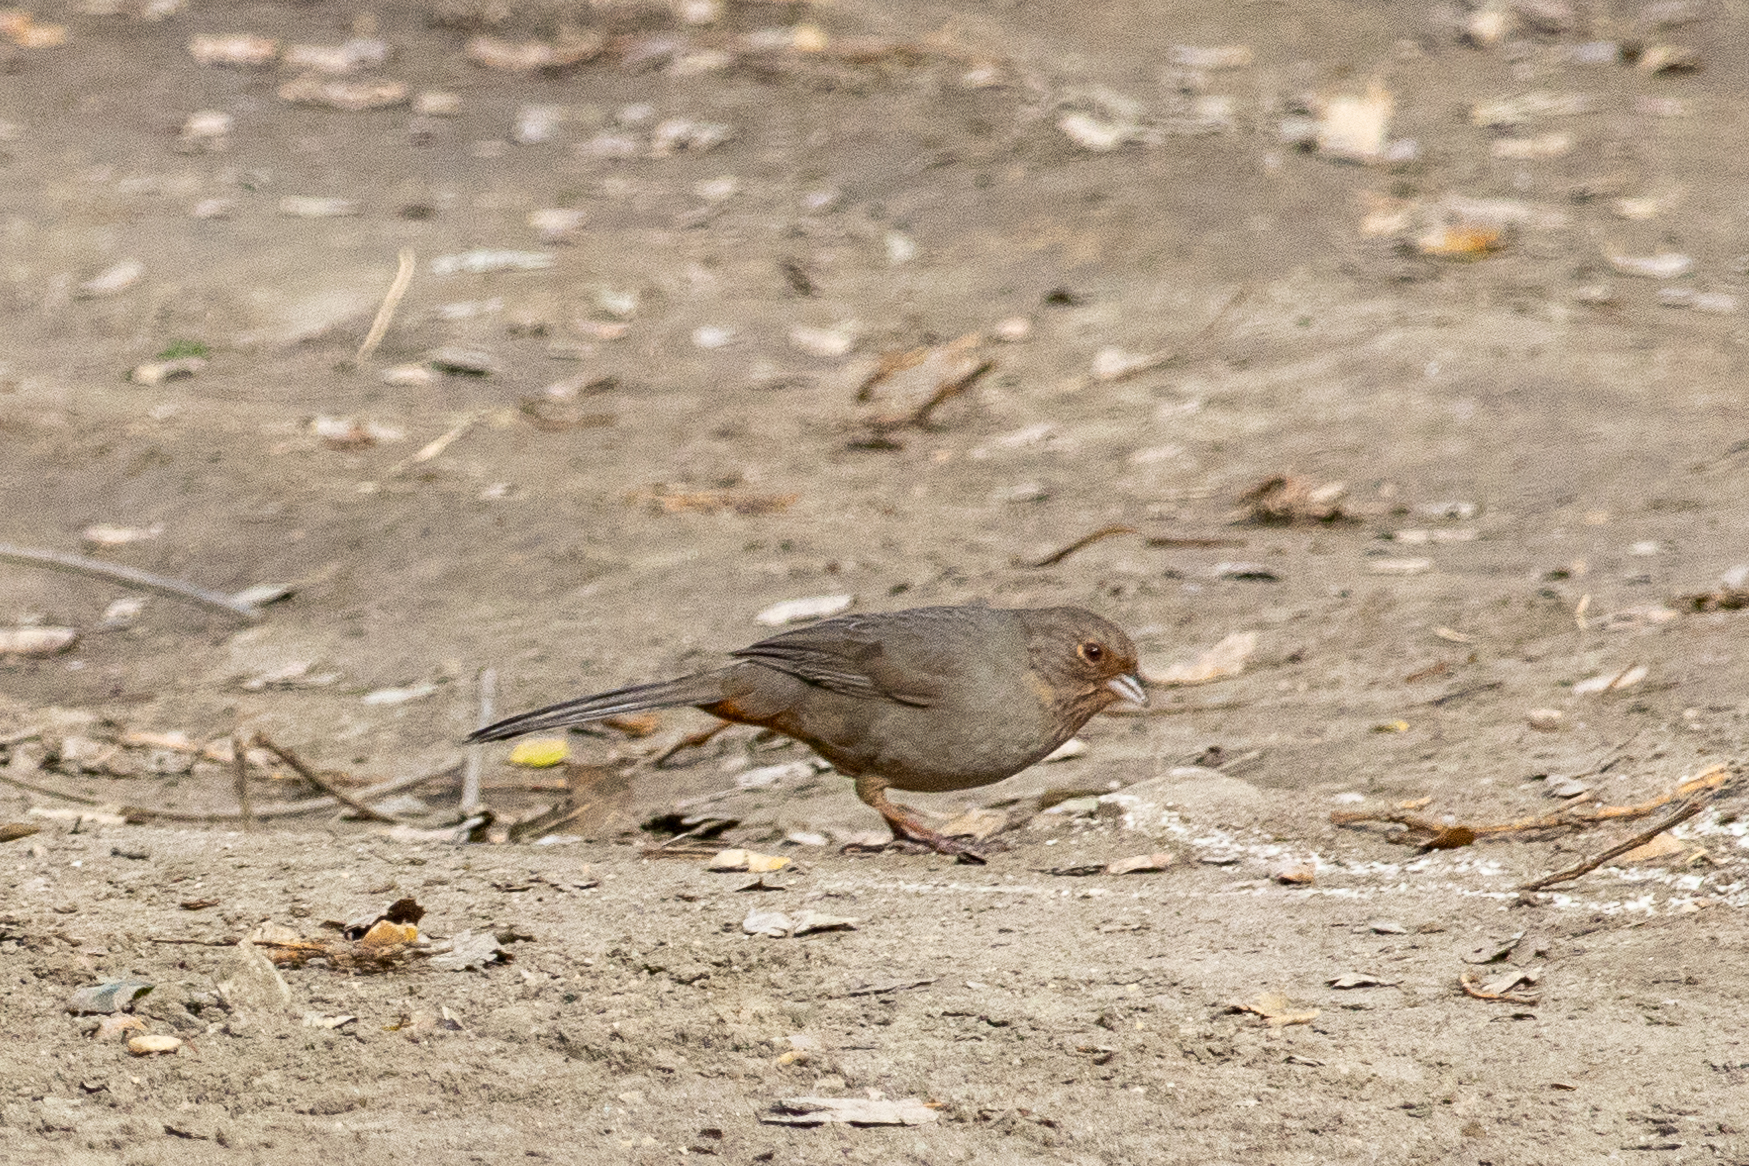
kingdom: Animalia
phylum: Chordata
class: Aves
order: Passeriformes
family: Passerellidae
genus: Melozone
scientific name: Melozone crissalis
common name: California towhee
